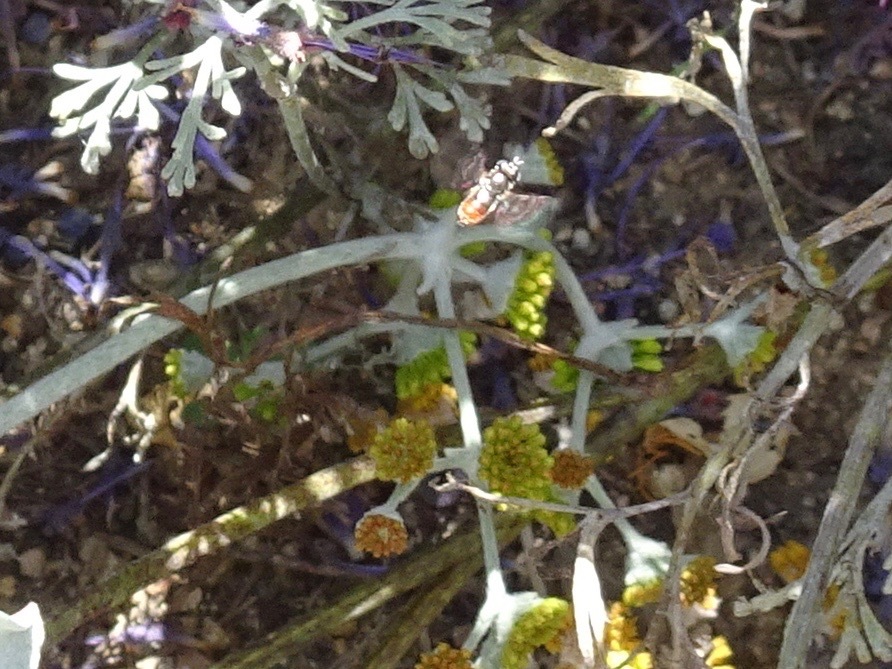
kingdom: Animalia
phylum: Arthropoda
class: Insecta
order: Diptera
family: Syrphidae
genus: Paragus
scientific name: Paragus haemorrhous
